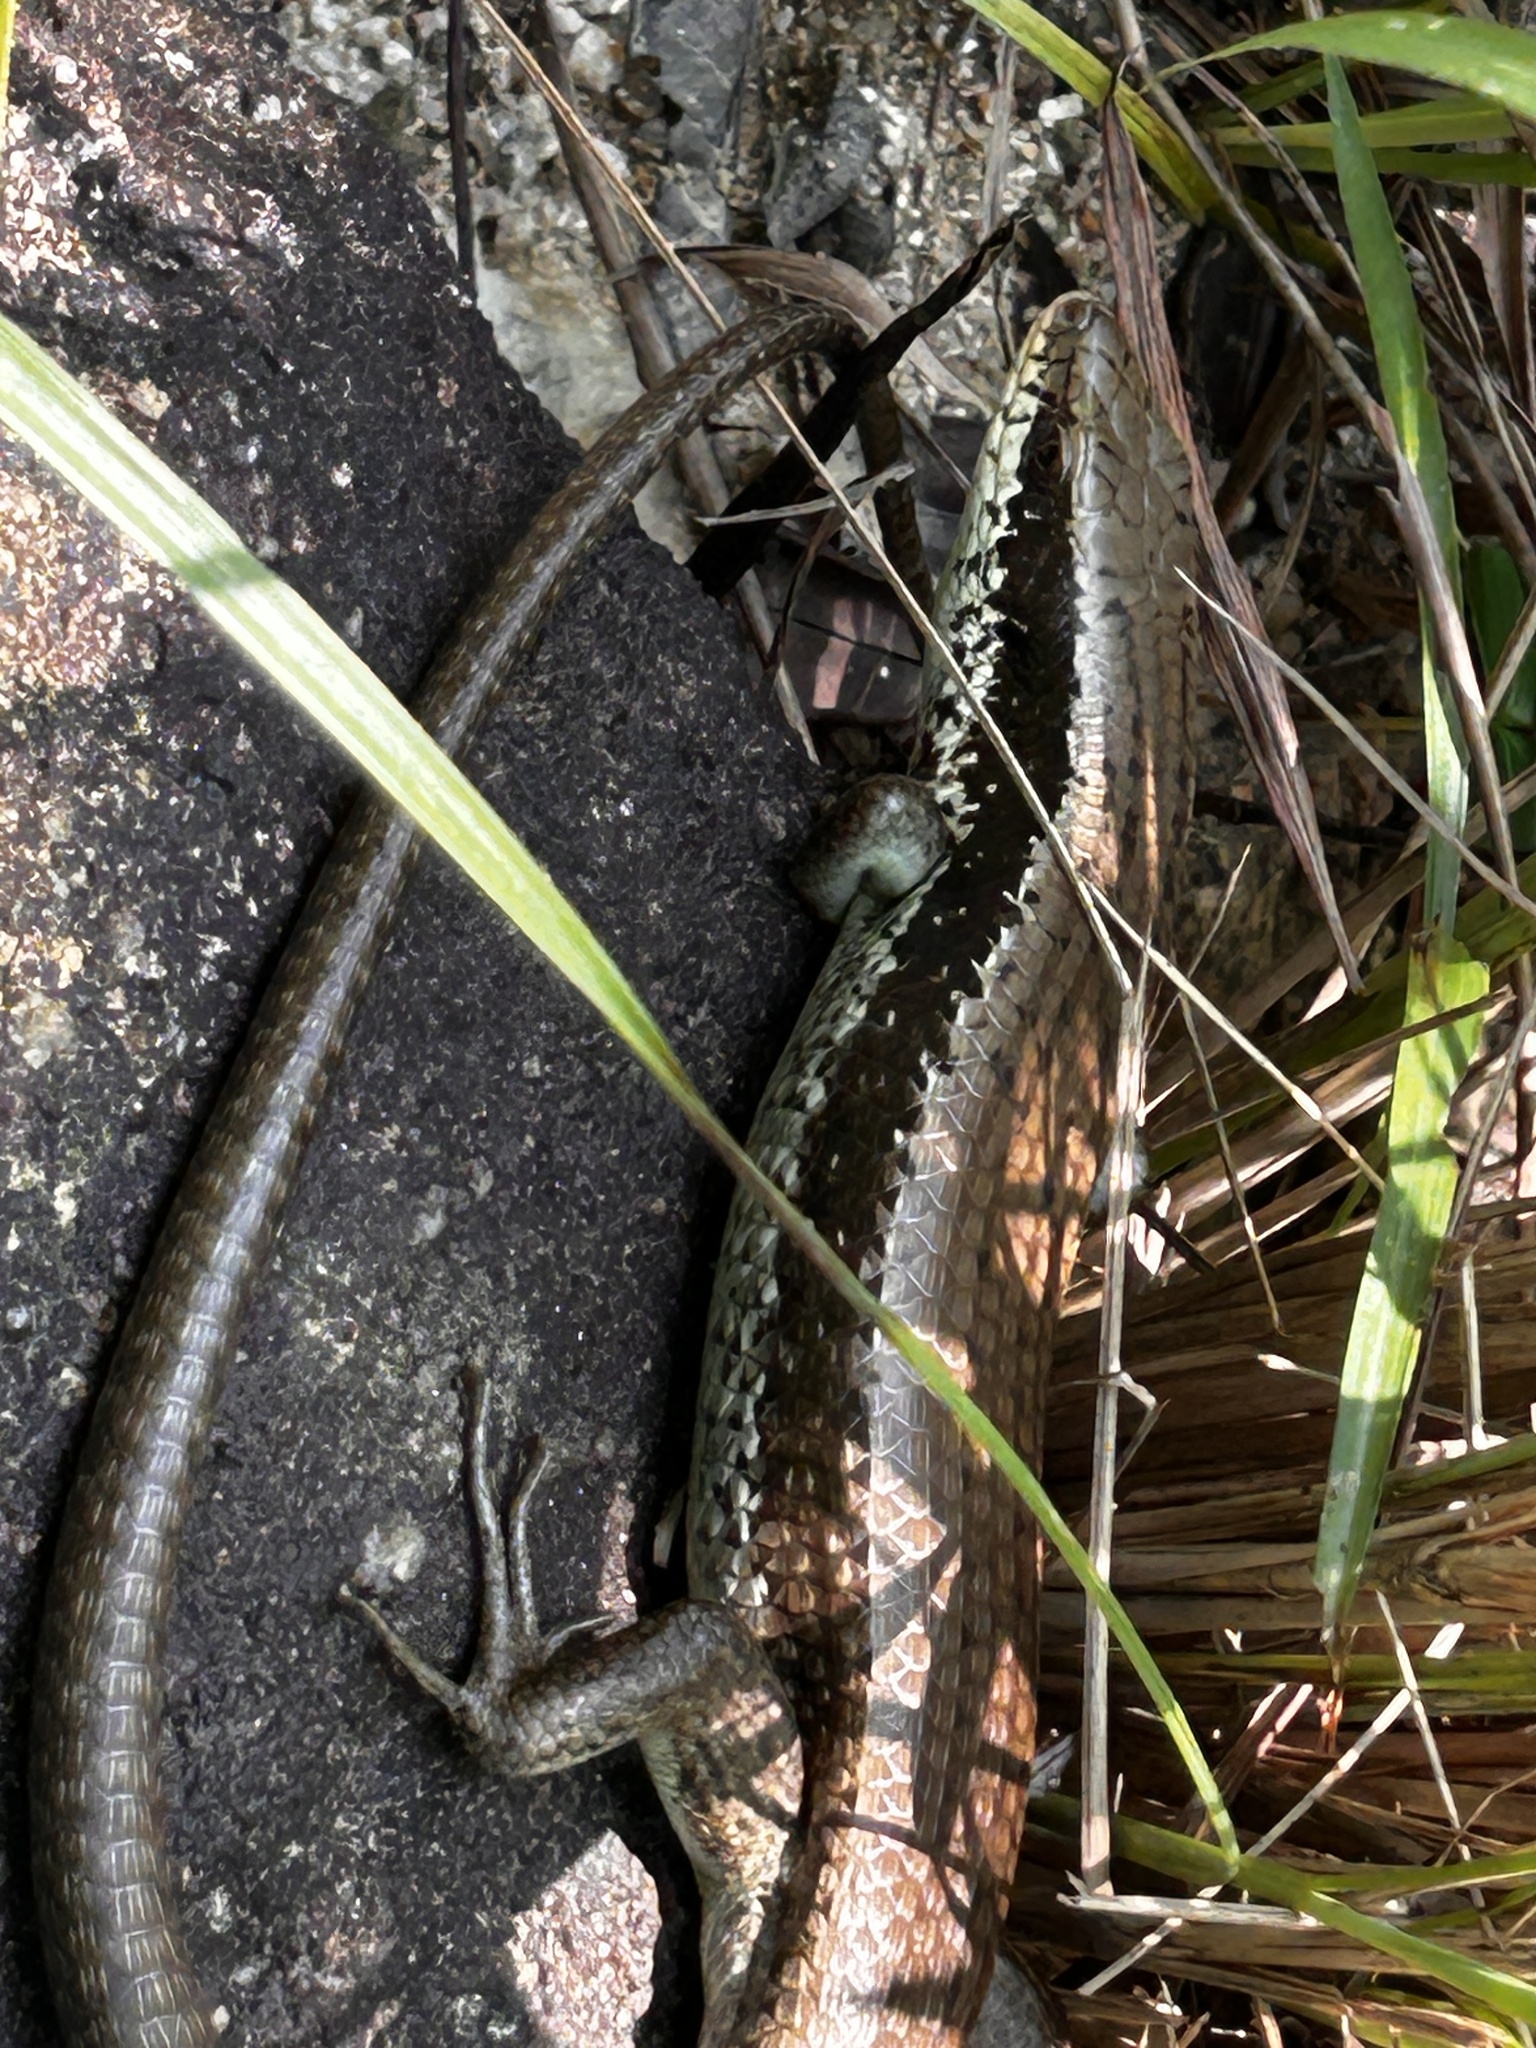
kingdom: Animalia
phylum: Chordata
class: Squamata
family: Scincidae
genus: Eutropis
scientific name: Eutropis longicaudata
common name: Long-tailed sun skink
